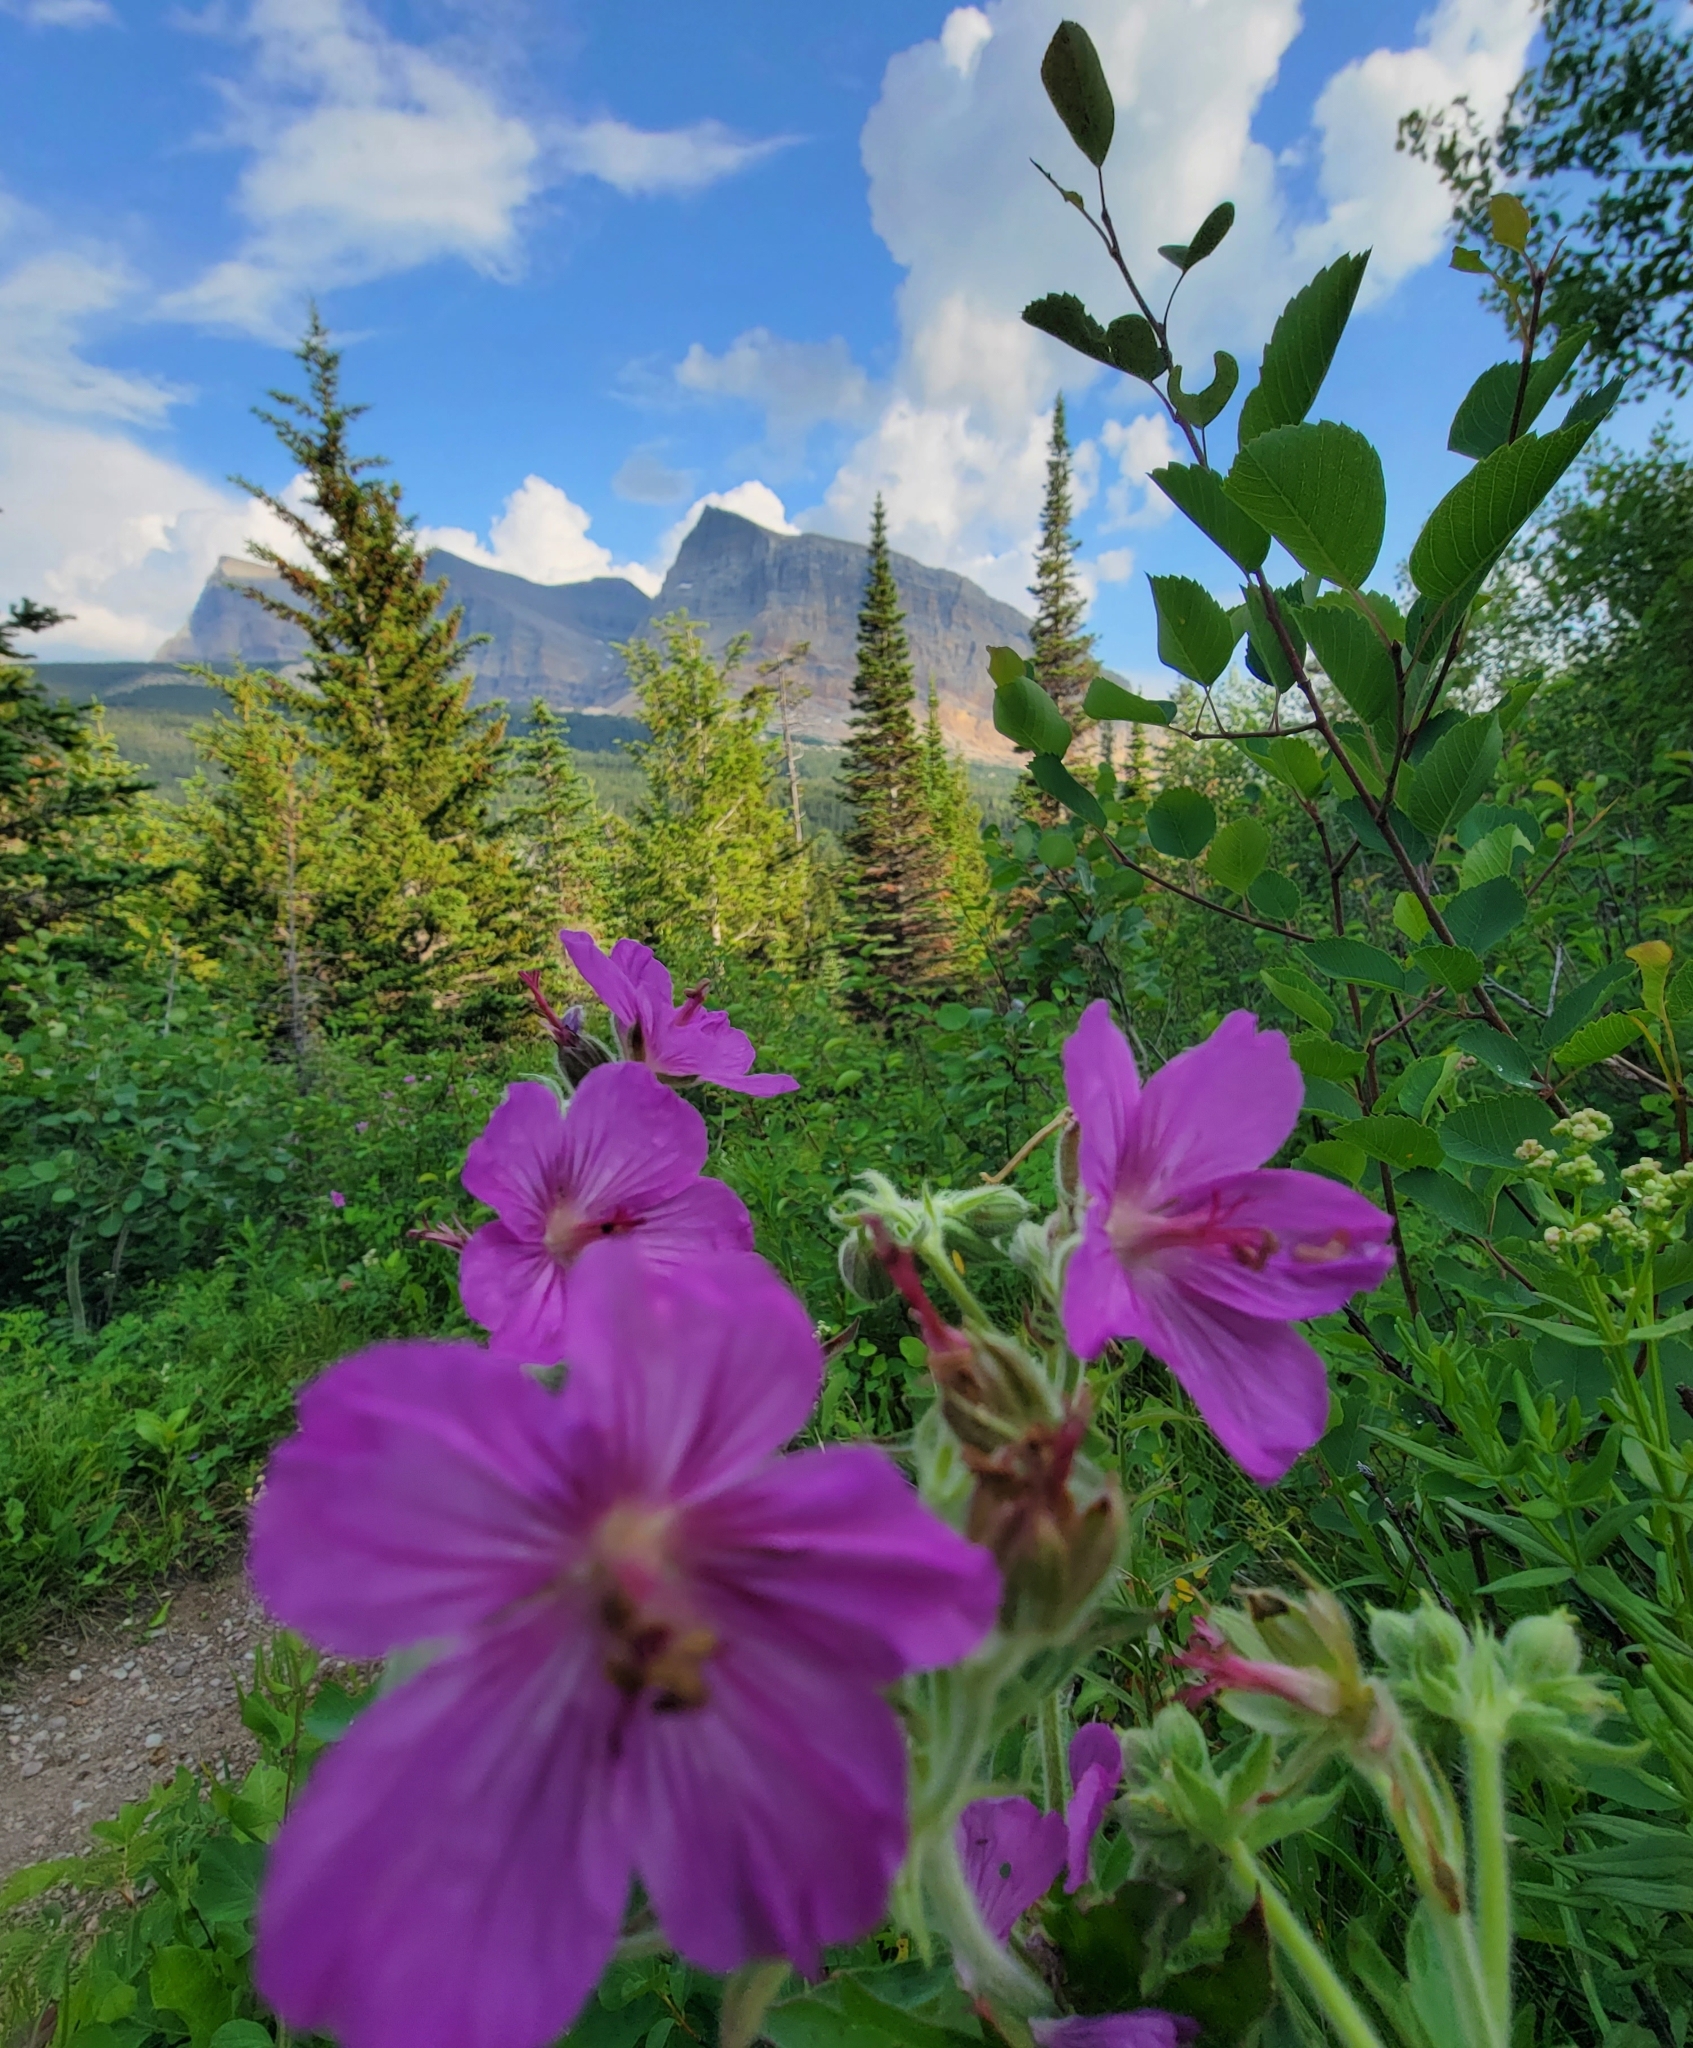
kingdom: Plantae
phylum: Tracheophyta
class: Magnoliopsida
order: Geraniales
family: Geraniaceae
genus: Geranium
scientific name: Geranium viscosissimum
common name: Purple geranium
